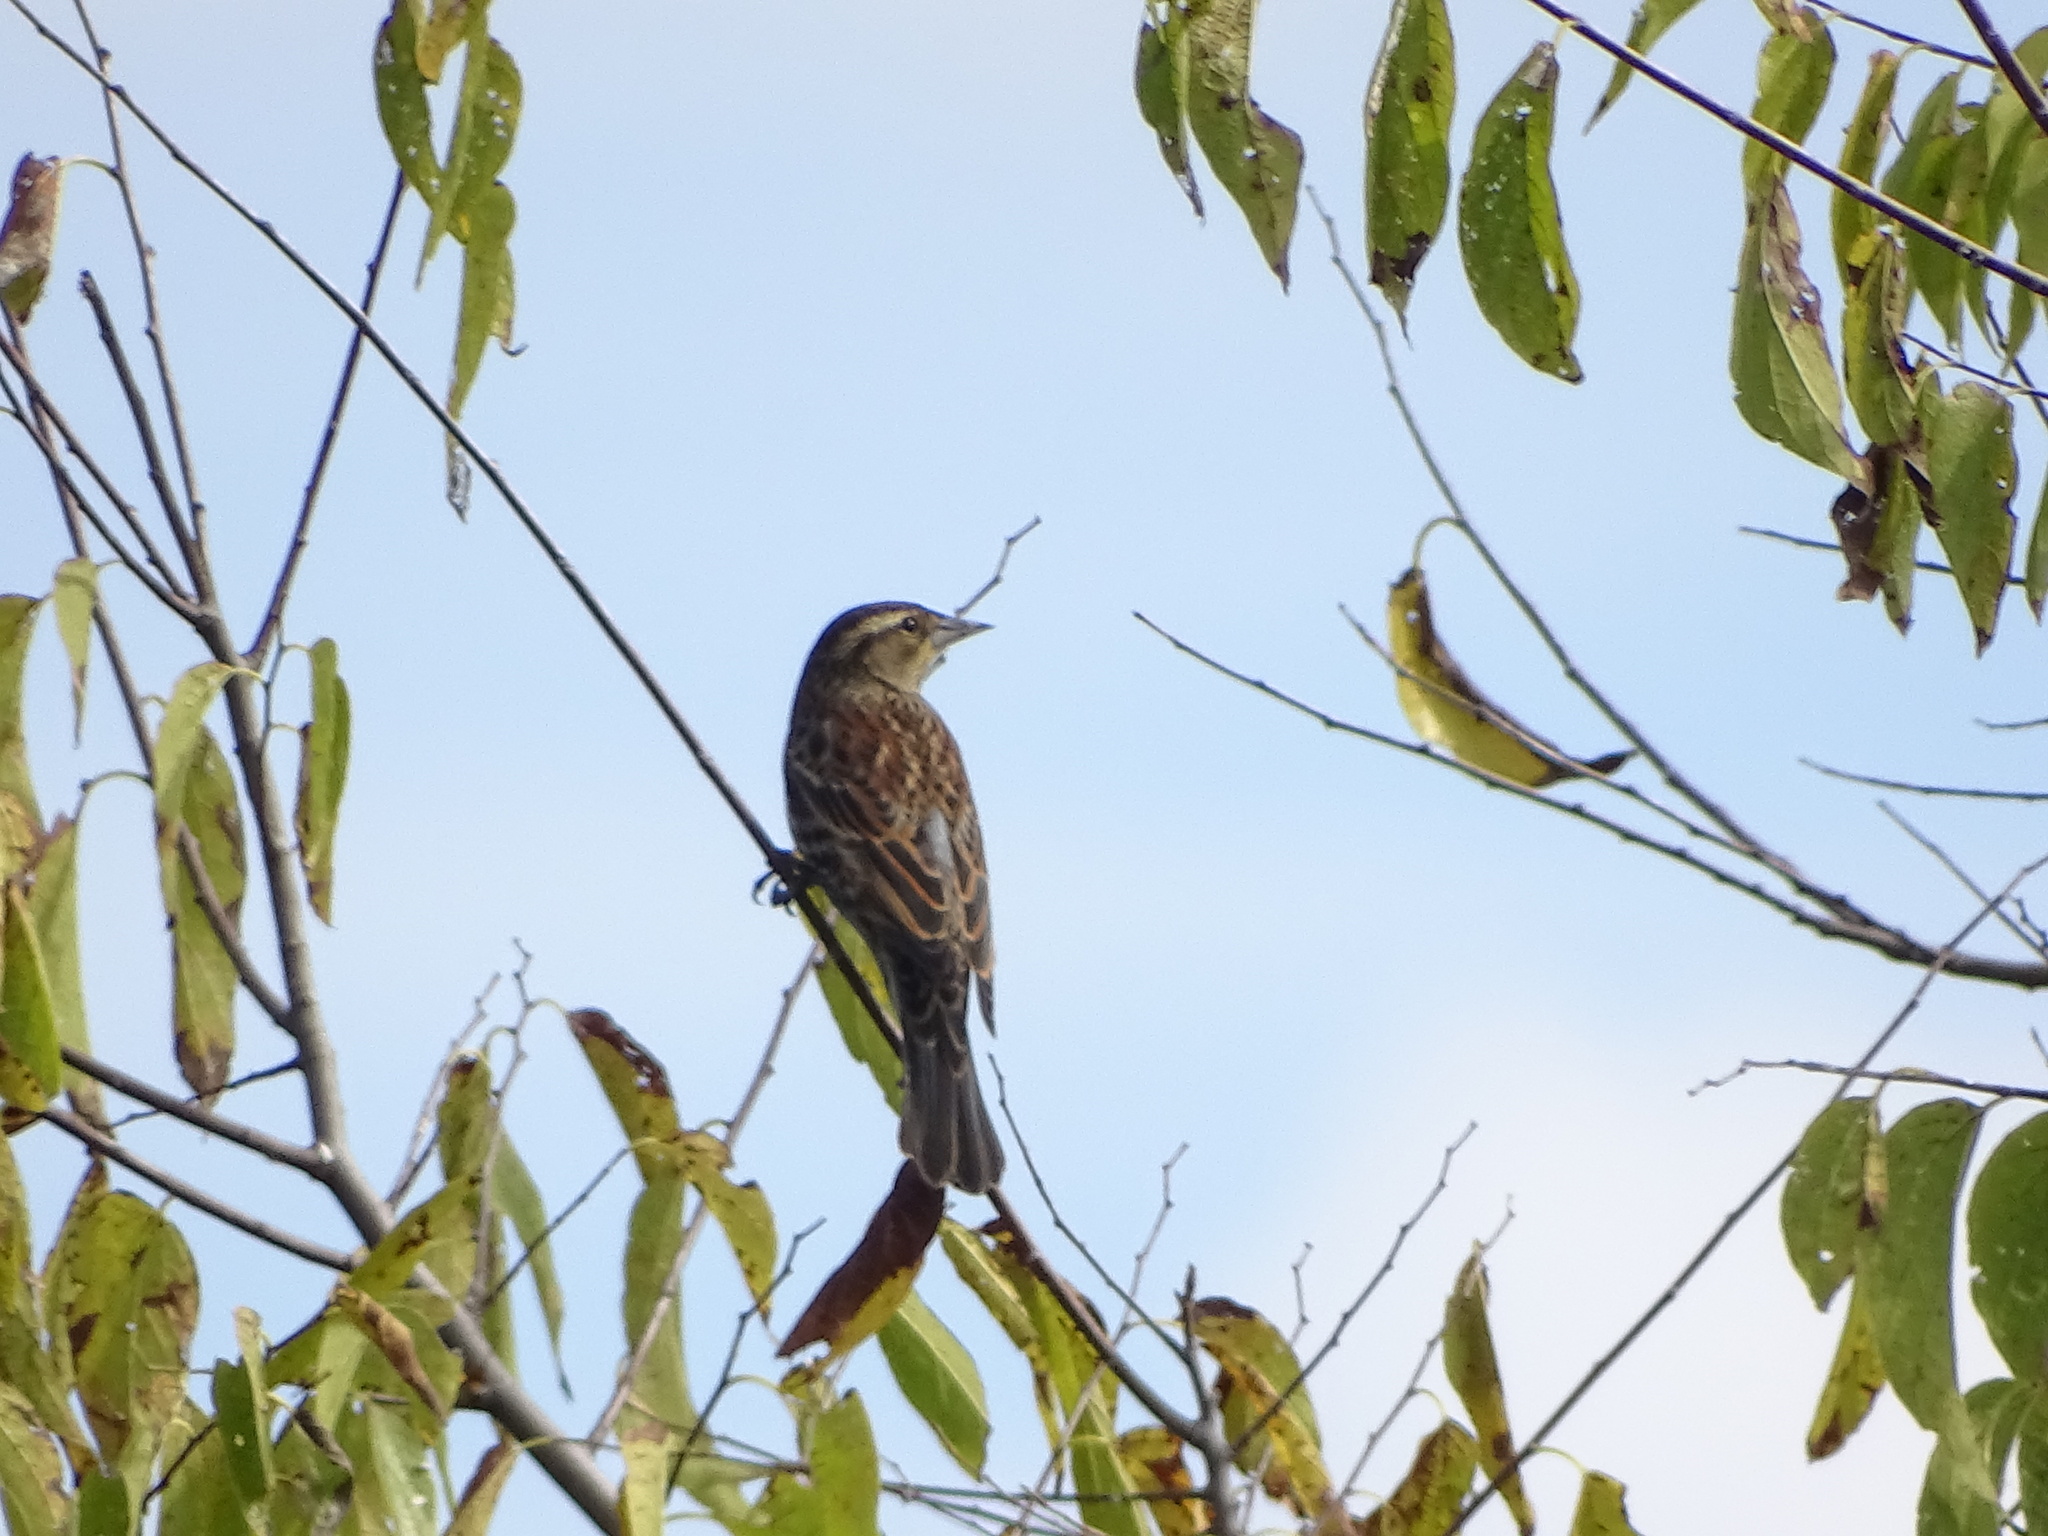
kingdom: Animalia
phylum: Chordata
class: Aves
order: Passeriformes
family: Icteridae
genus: Agelaius
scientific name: Agelaius phoeniceus
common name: Red-winged blackbird
